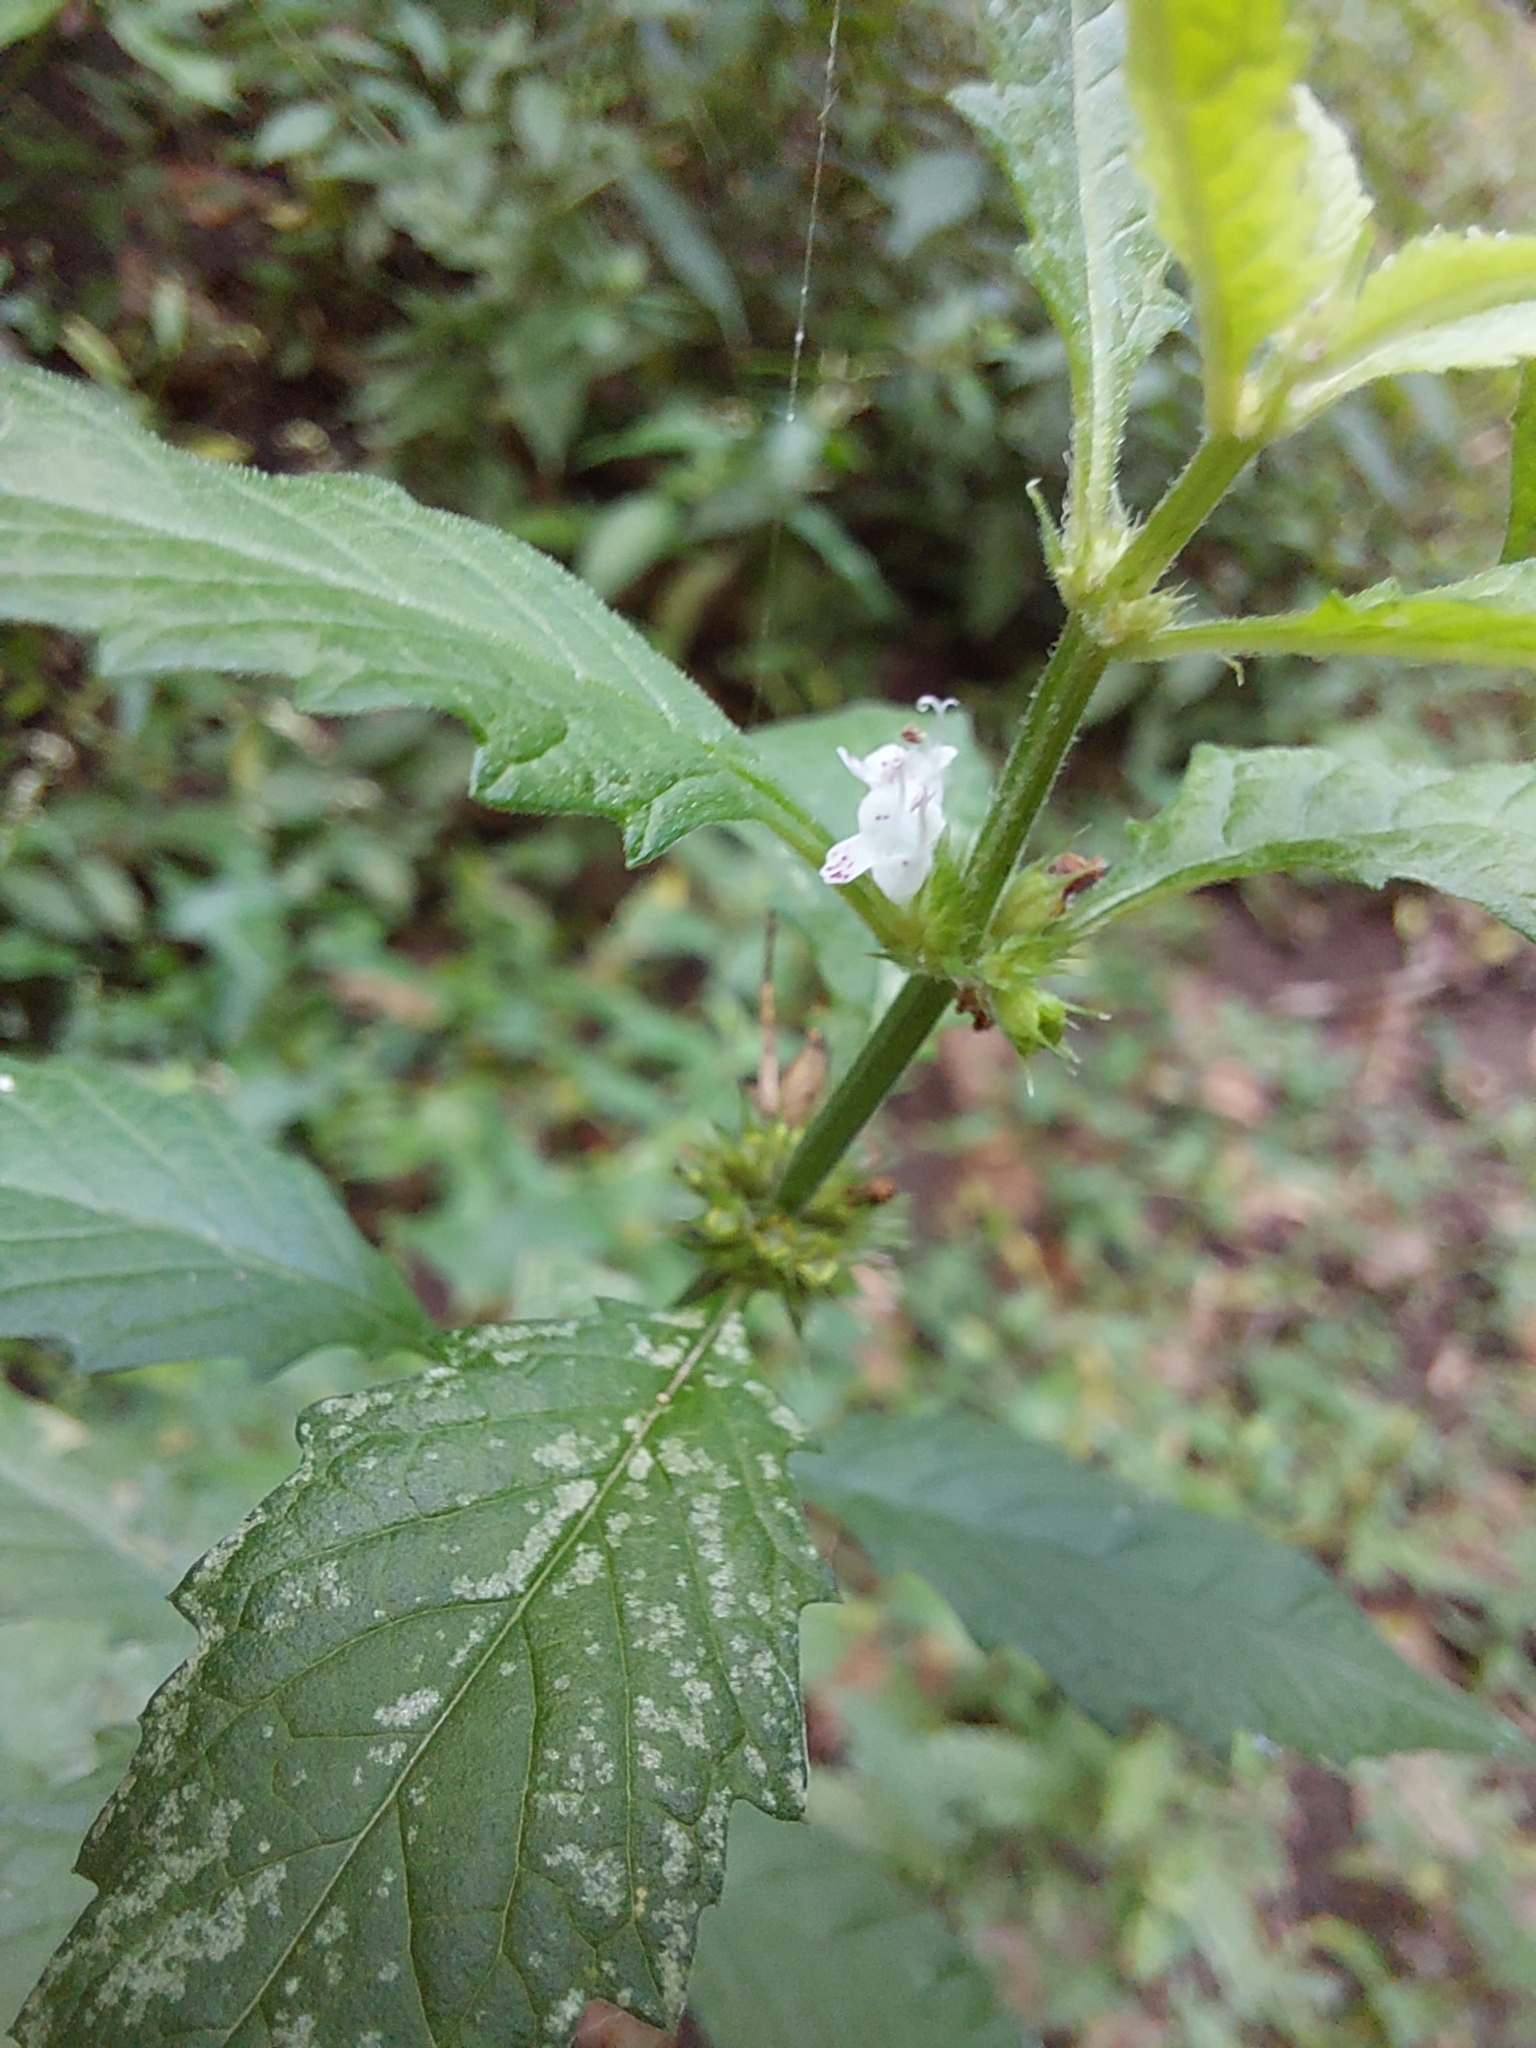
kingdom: Plantae
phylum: Tracheophyta
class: Magnoliopsida
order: Lamiales
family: Lamiaceae
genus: Lycopus
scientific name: Lycopus europaeus
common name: European bugleweed
